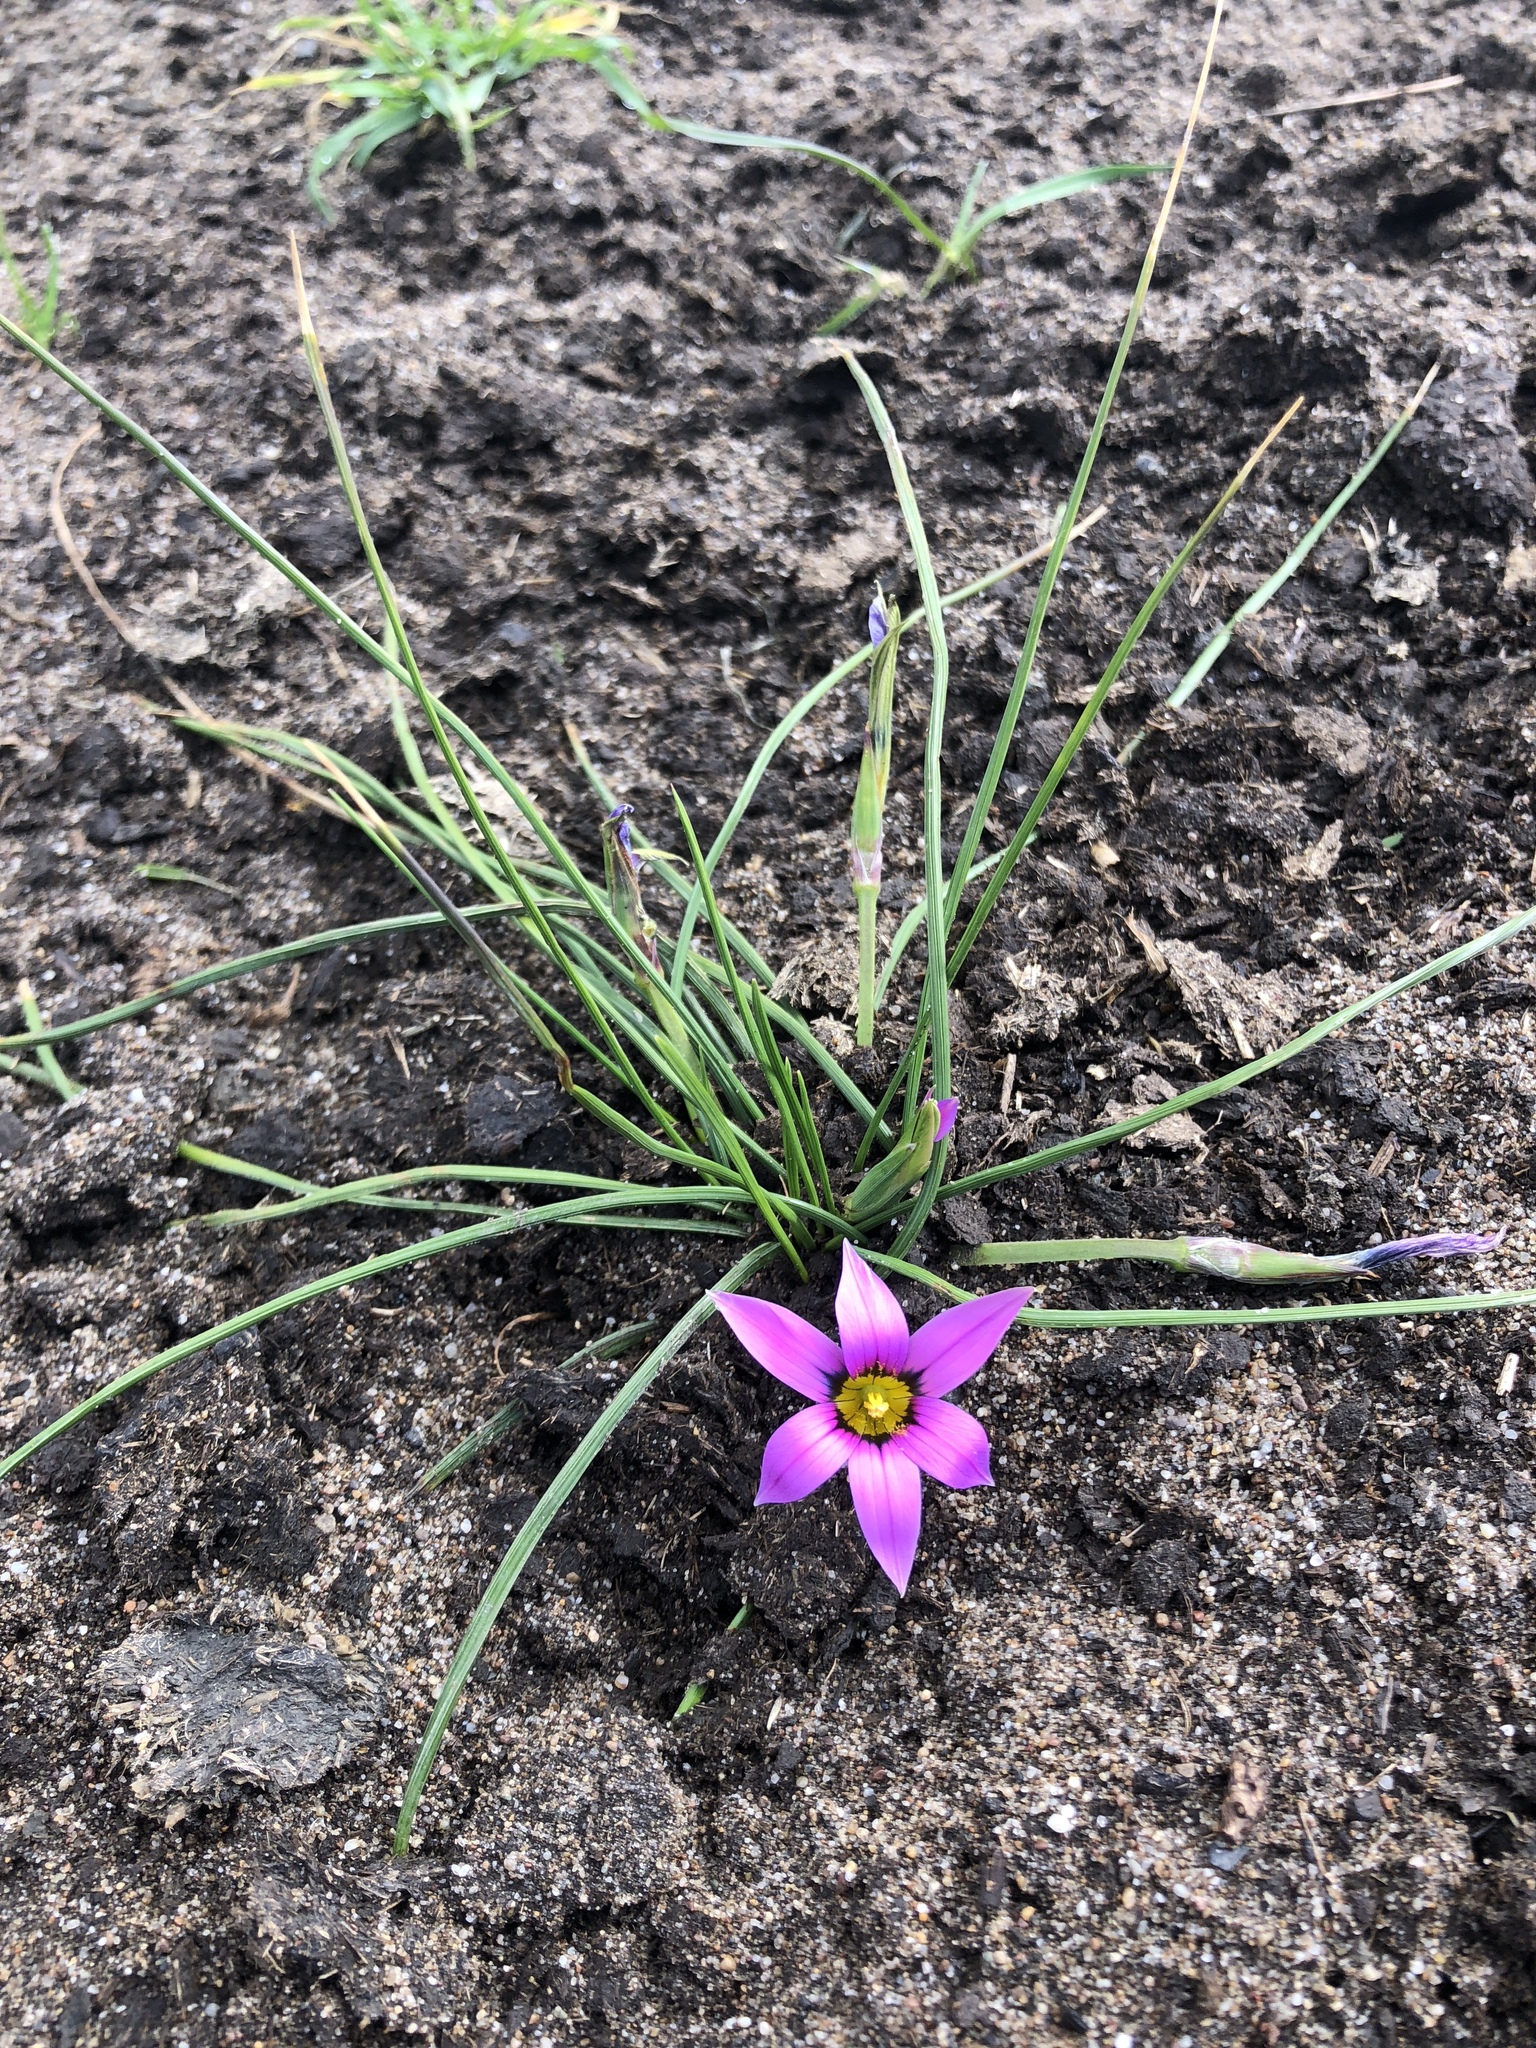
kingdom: Plantae
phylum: Tracheophyta
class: Liliopsida
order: Asparagales
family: Iridaceae
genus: Romulea
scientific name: Romulea rosea
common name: Oniongrass
